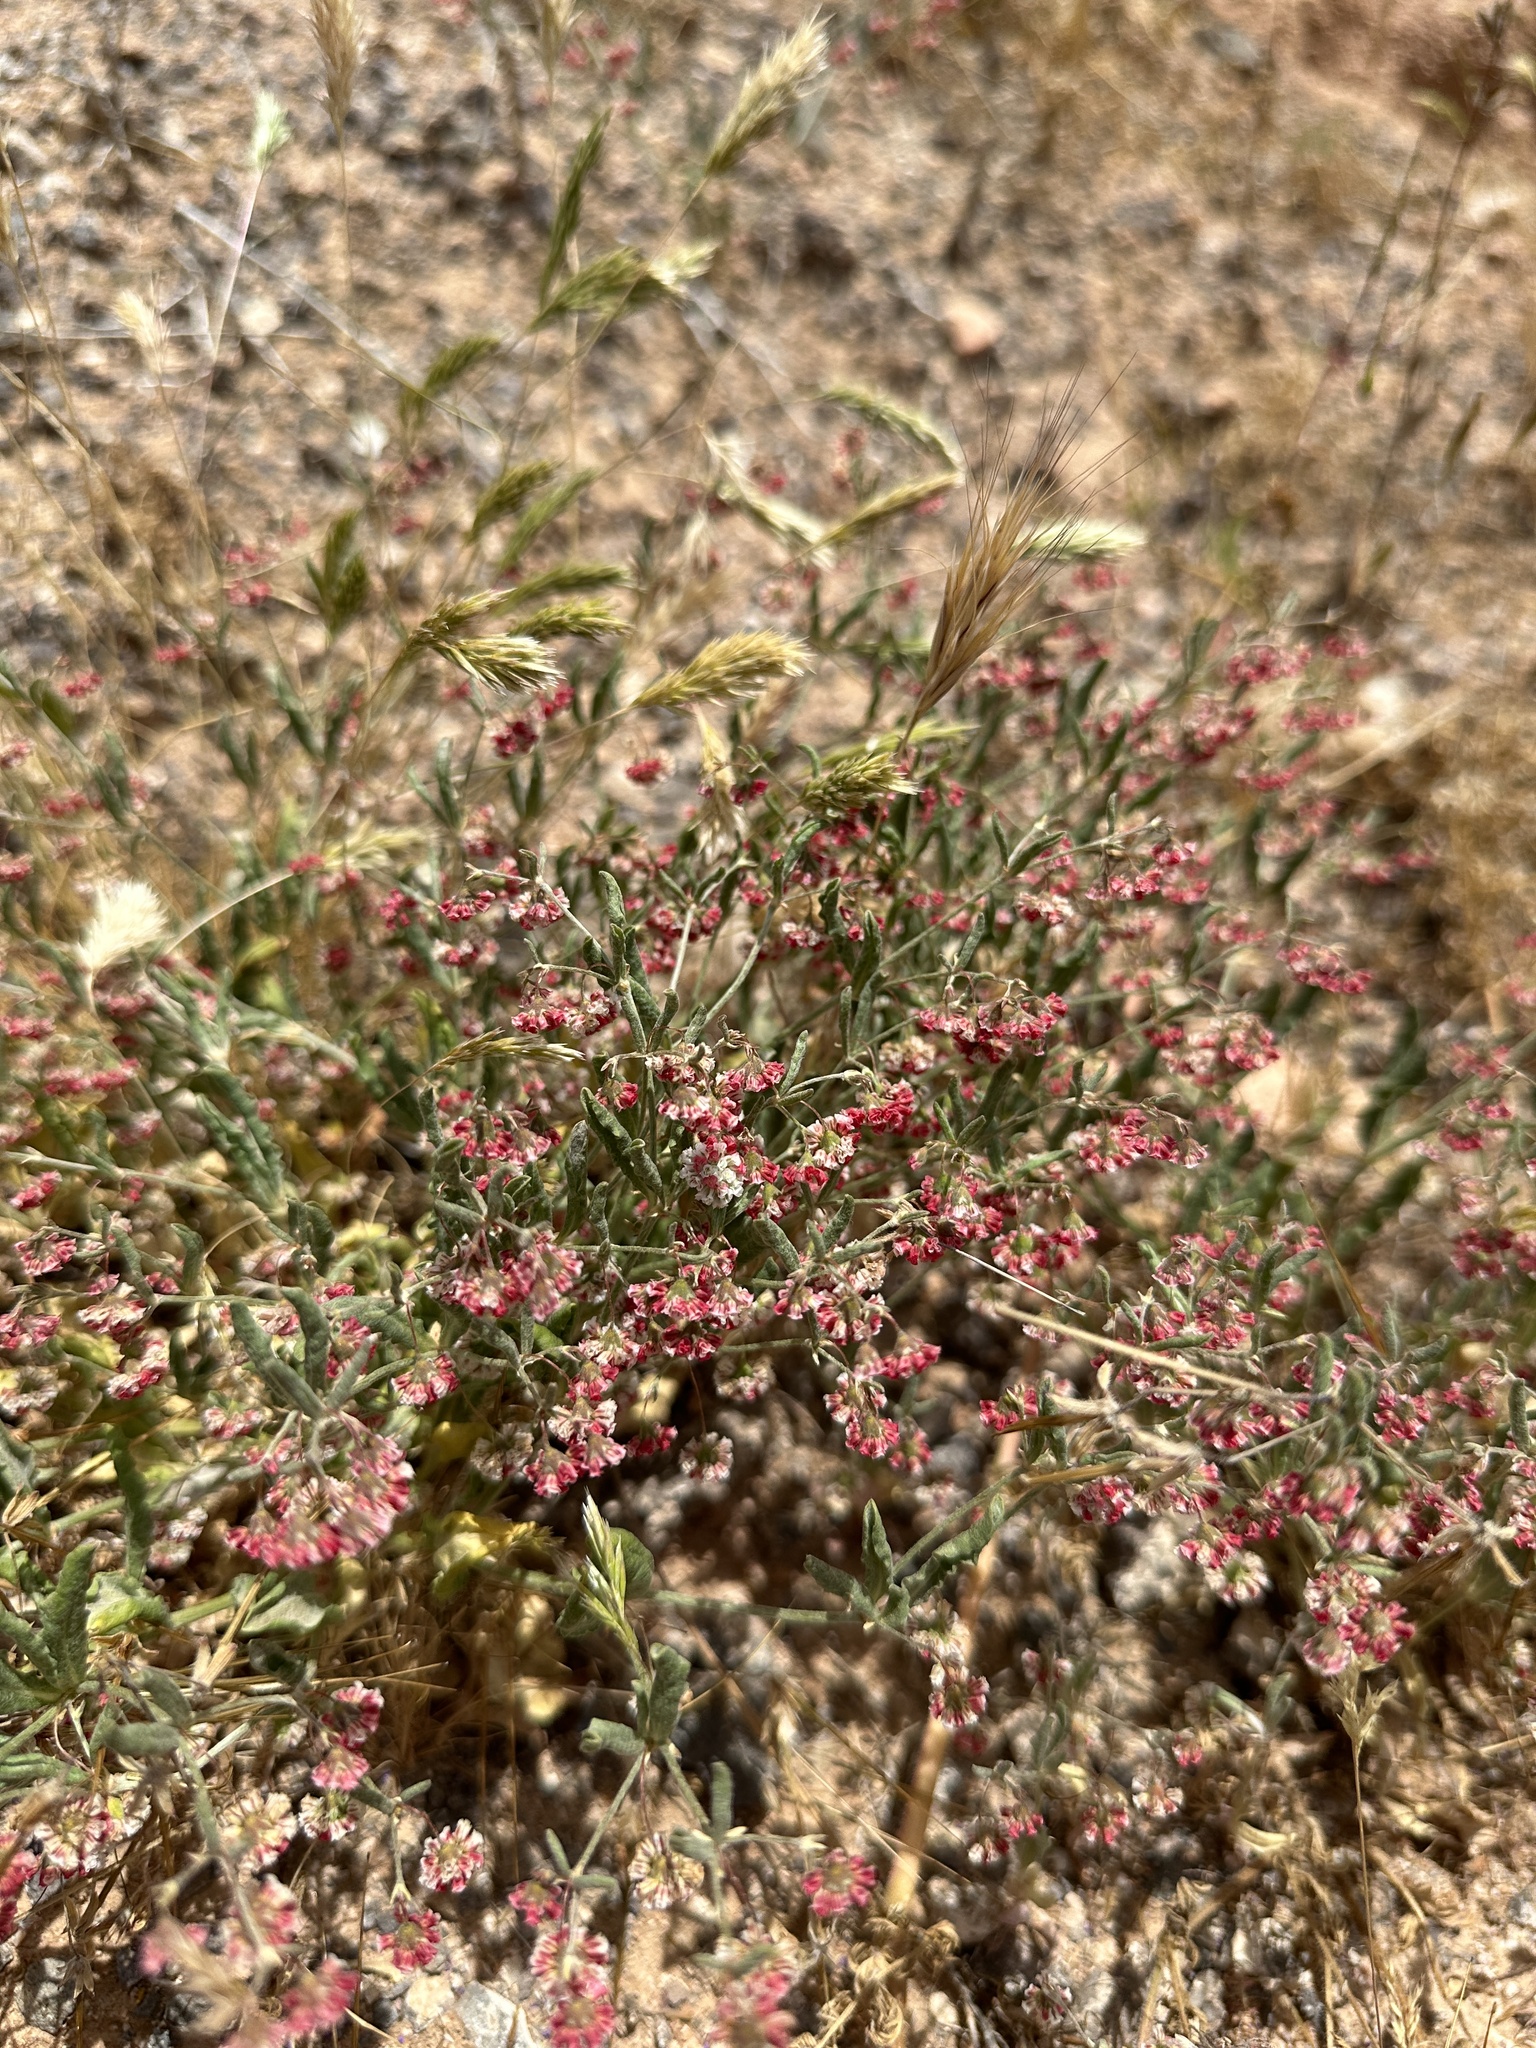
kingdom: Plantae
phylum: Tracheophyta
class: Magnoliopsida
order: Caryophyllales
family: Polygonaceae
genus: Eriogonum
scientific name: Eriogonum gracillimum
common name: Rose-and-white wild buckwheat
